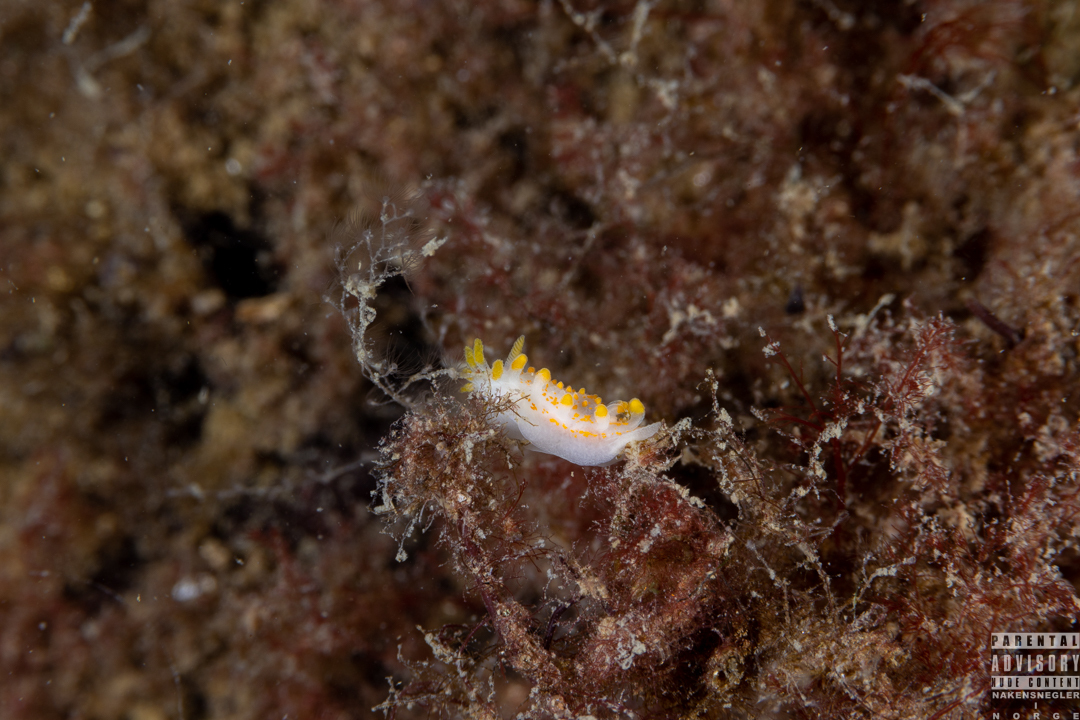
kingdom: Animalia
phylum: Mollusca
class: Gastropoda
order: Nudibranchia
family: Polyceridae
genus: Limacia
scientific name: Limacia clavigera
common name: Orange-clubbed sea slug
